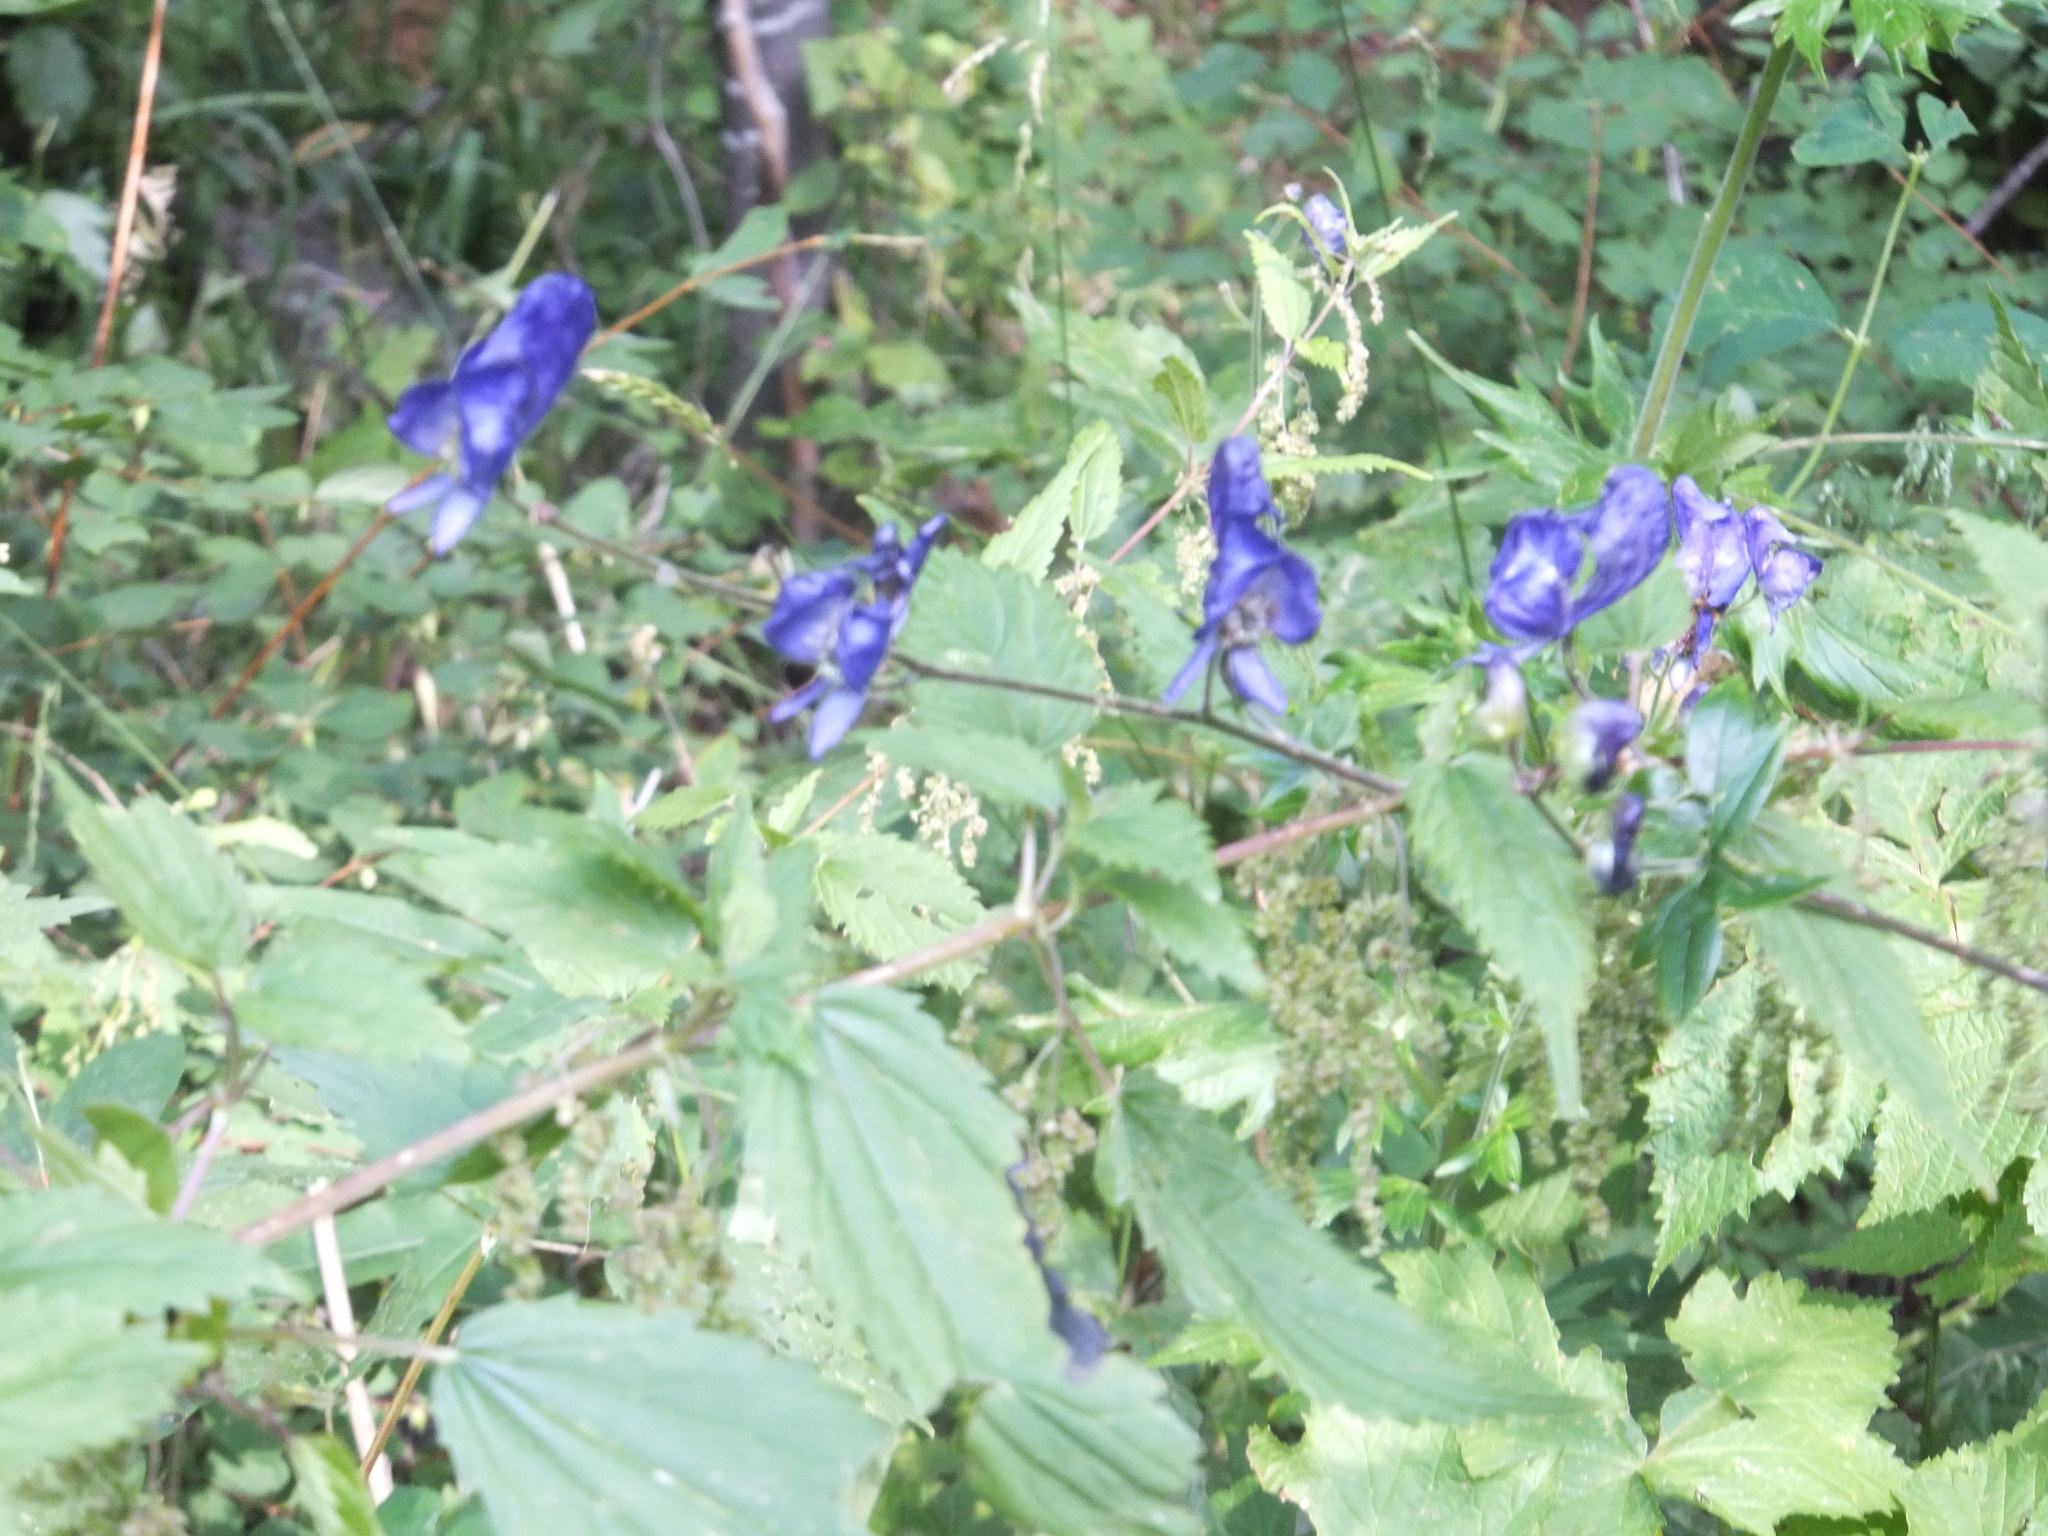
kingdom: Plantae
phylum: Tracheophyta
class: Magnoliopsida
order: Ranunculales
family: Ranunculaceae
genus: Aconitum
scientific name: Aconitum columbianum
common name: Columbia aconite
